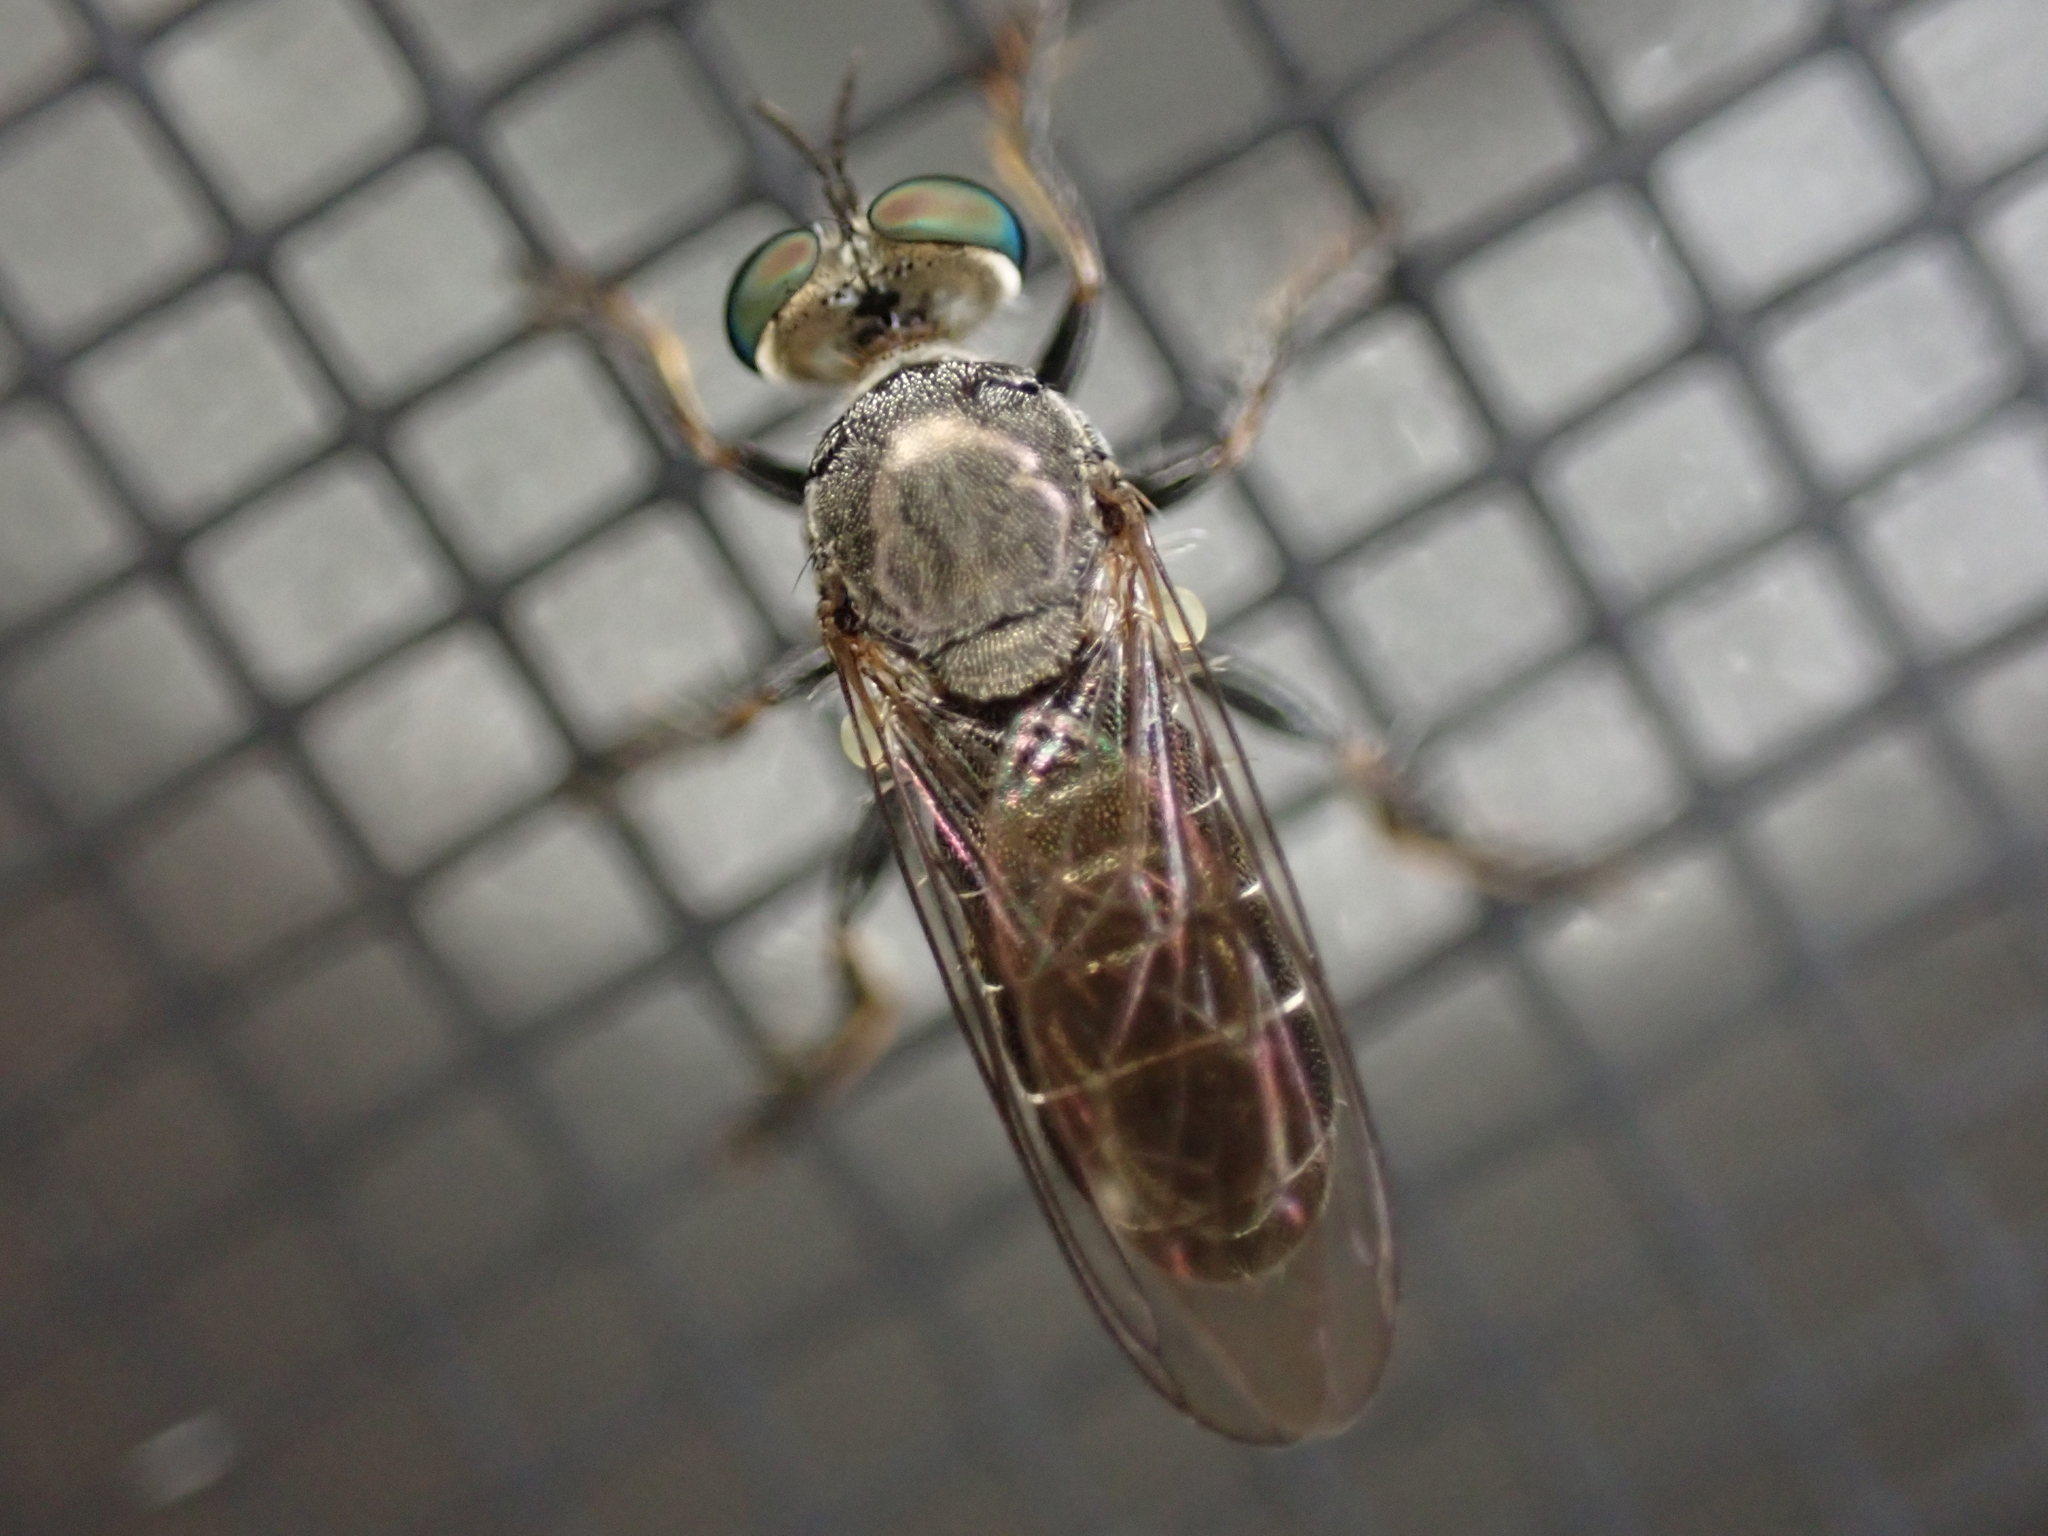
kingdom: Animalia
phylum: Arthropoda
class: Insecta
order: Diptera
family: Asilidae
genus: Atomosia
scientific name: Atomosia puella
